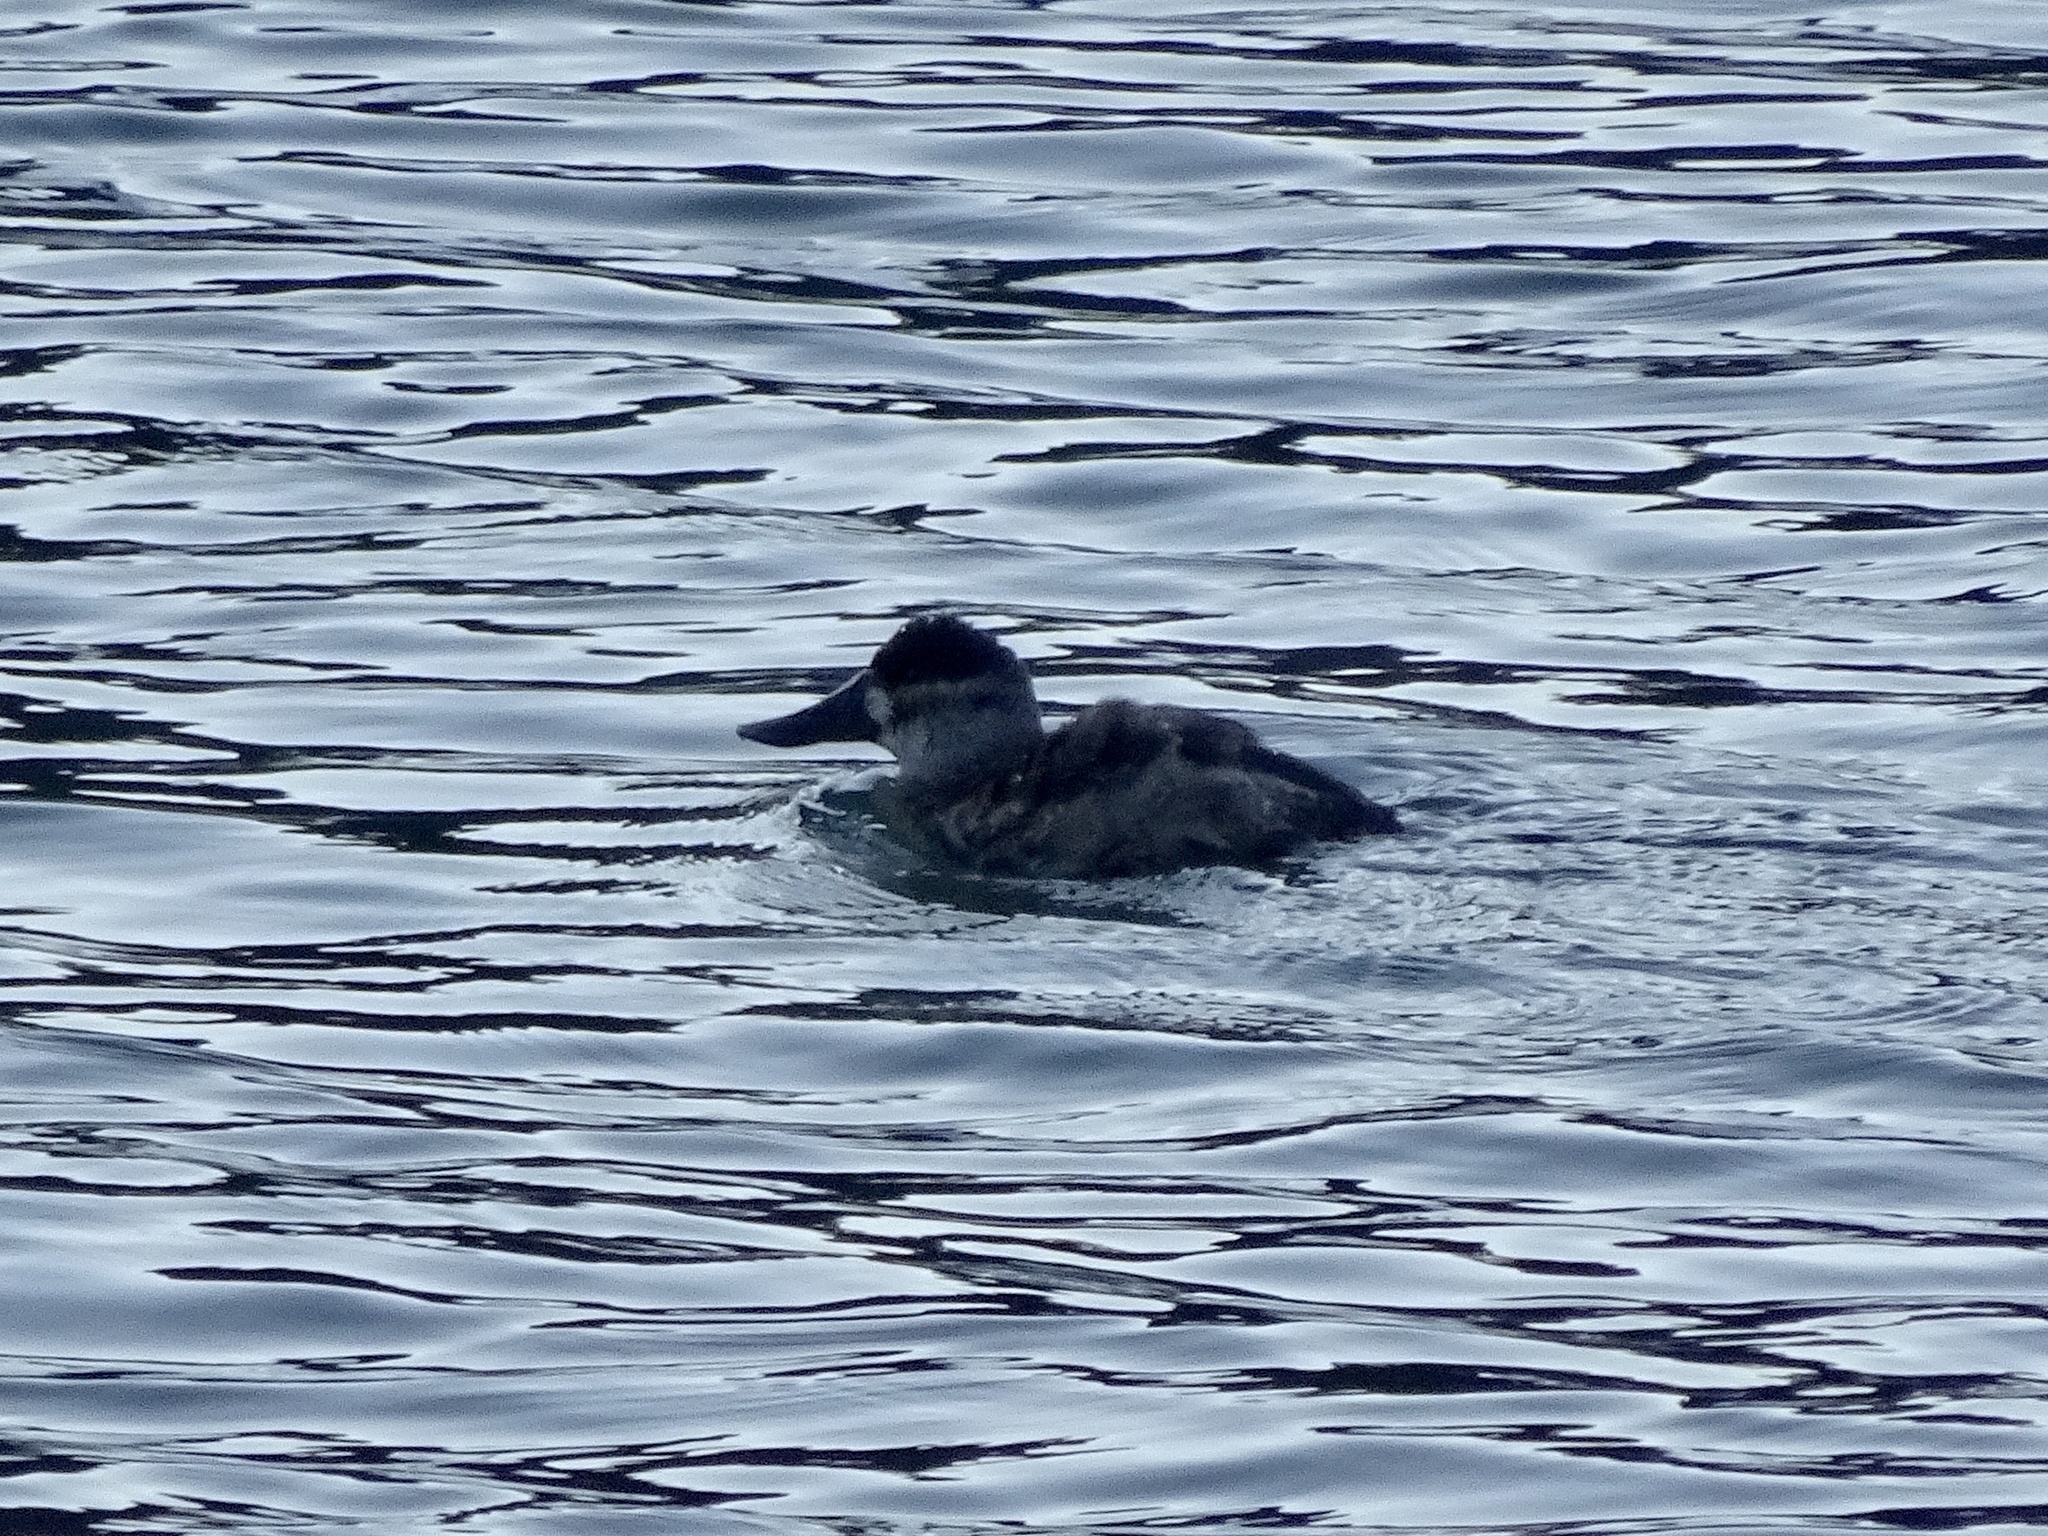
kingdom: Animalia
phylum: Chordata
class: Aves
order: Anseriformes
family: Anatidae
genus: Oxyura
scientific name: Oxyura jamaicensis
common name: Ruddy duck
